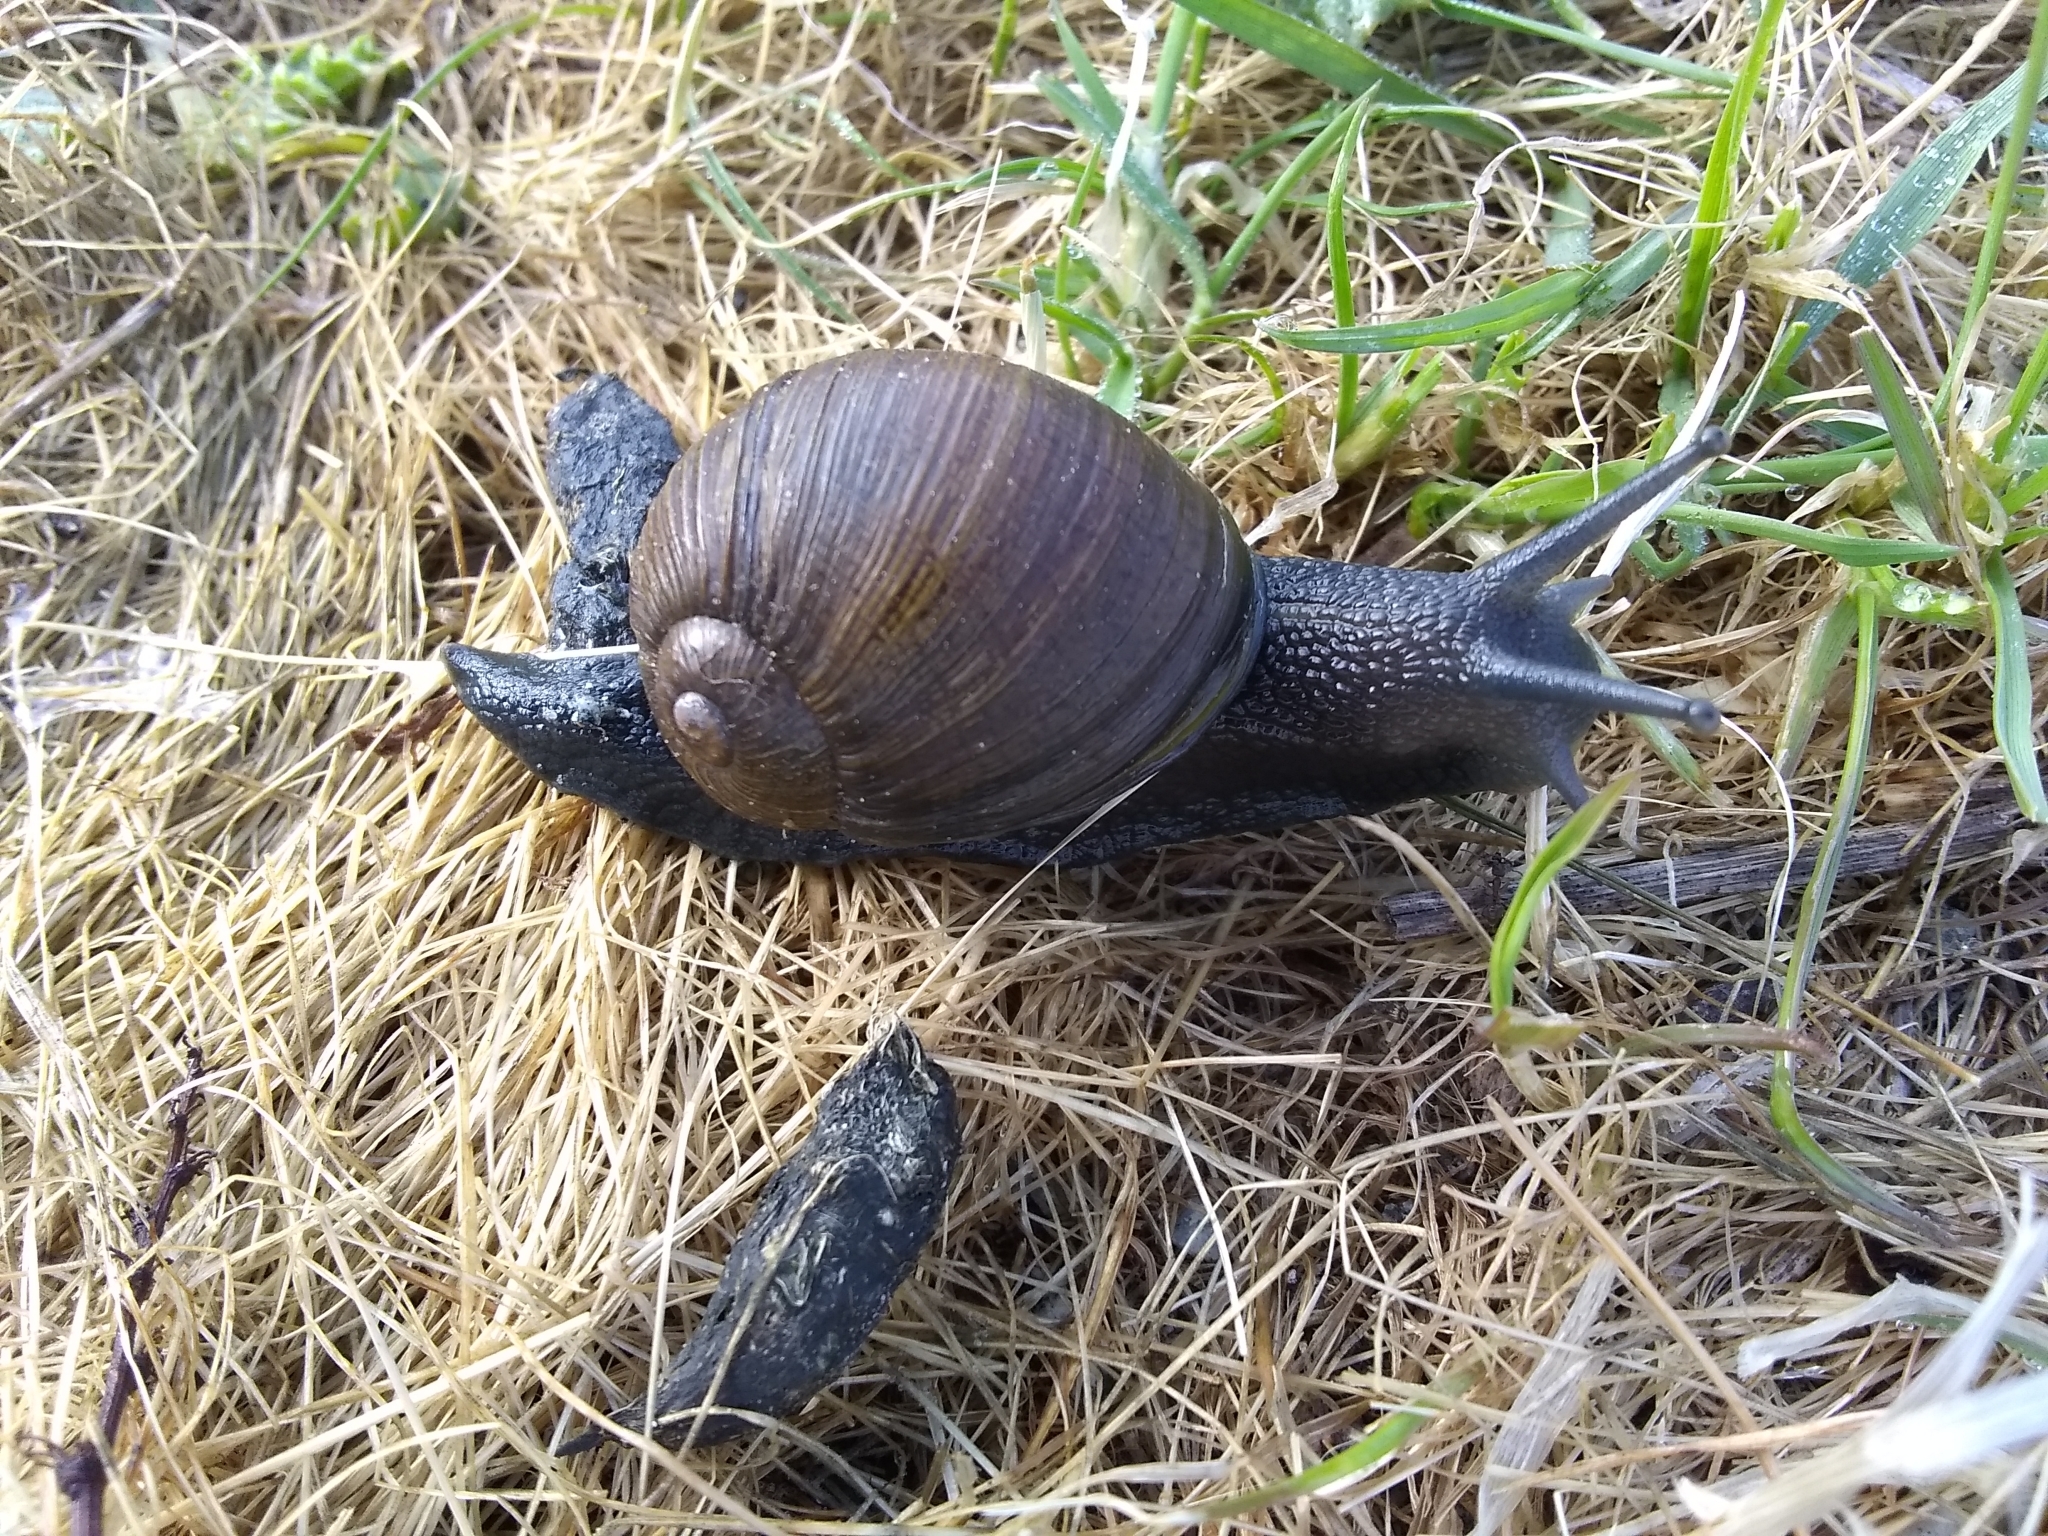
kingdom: Animalia
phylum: Mollusca
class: Gastropoda
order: Stylommatophora
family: Helicidae
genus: Cantareus
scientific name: Cantareus apertus
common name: Green gardensnail
